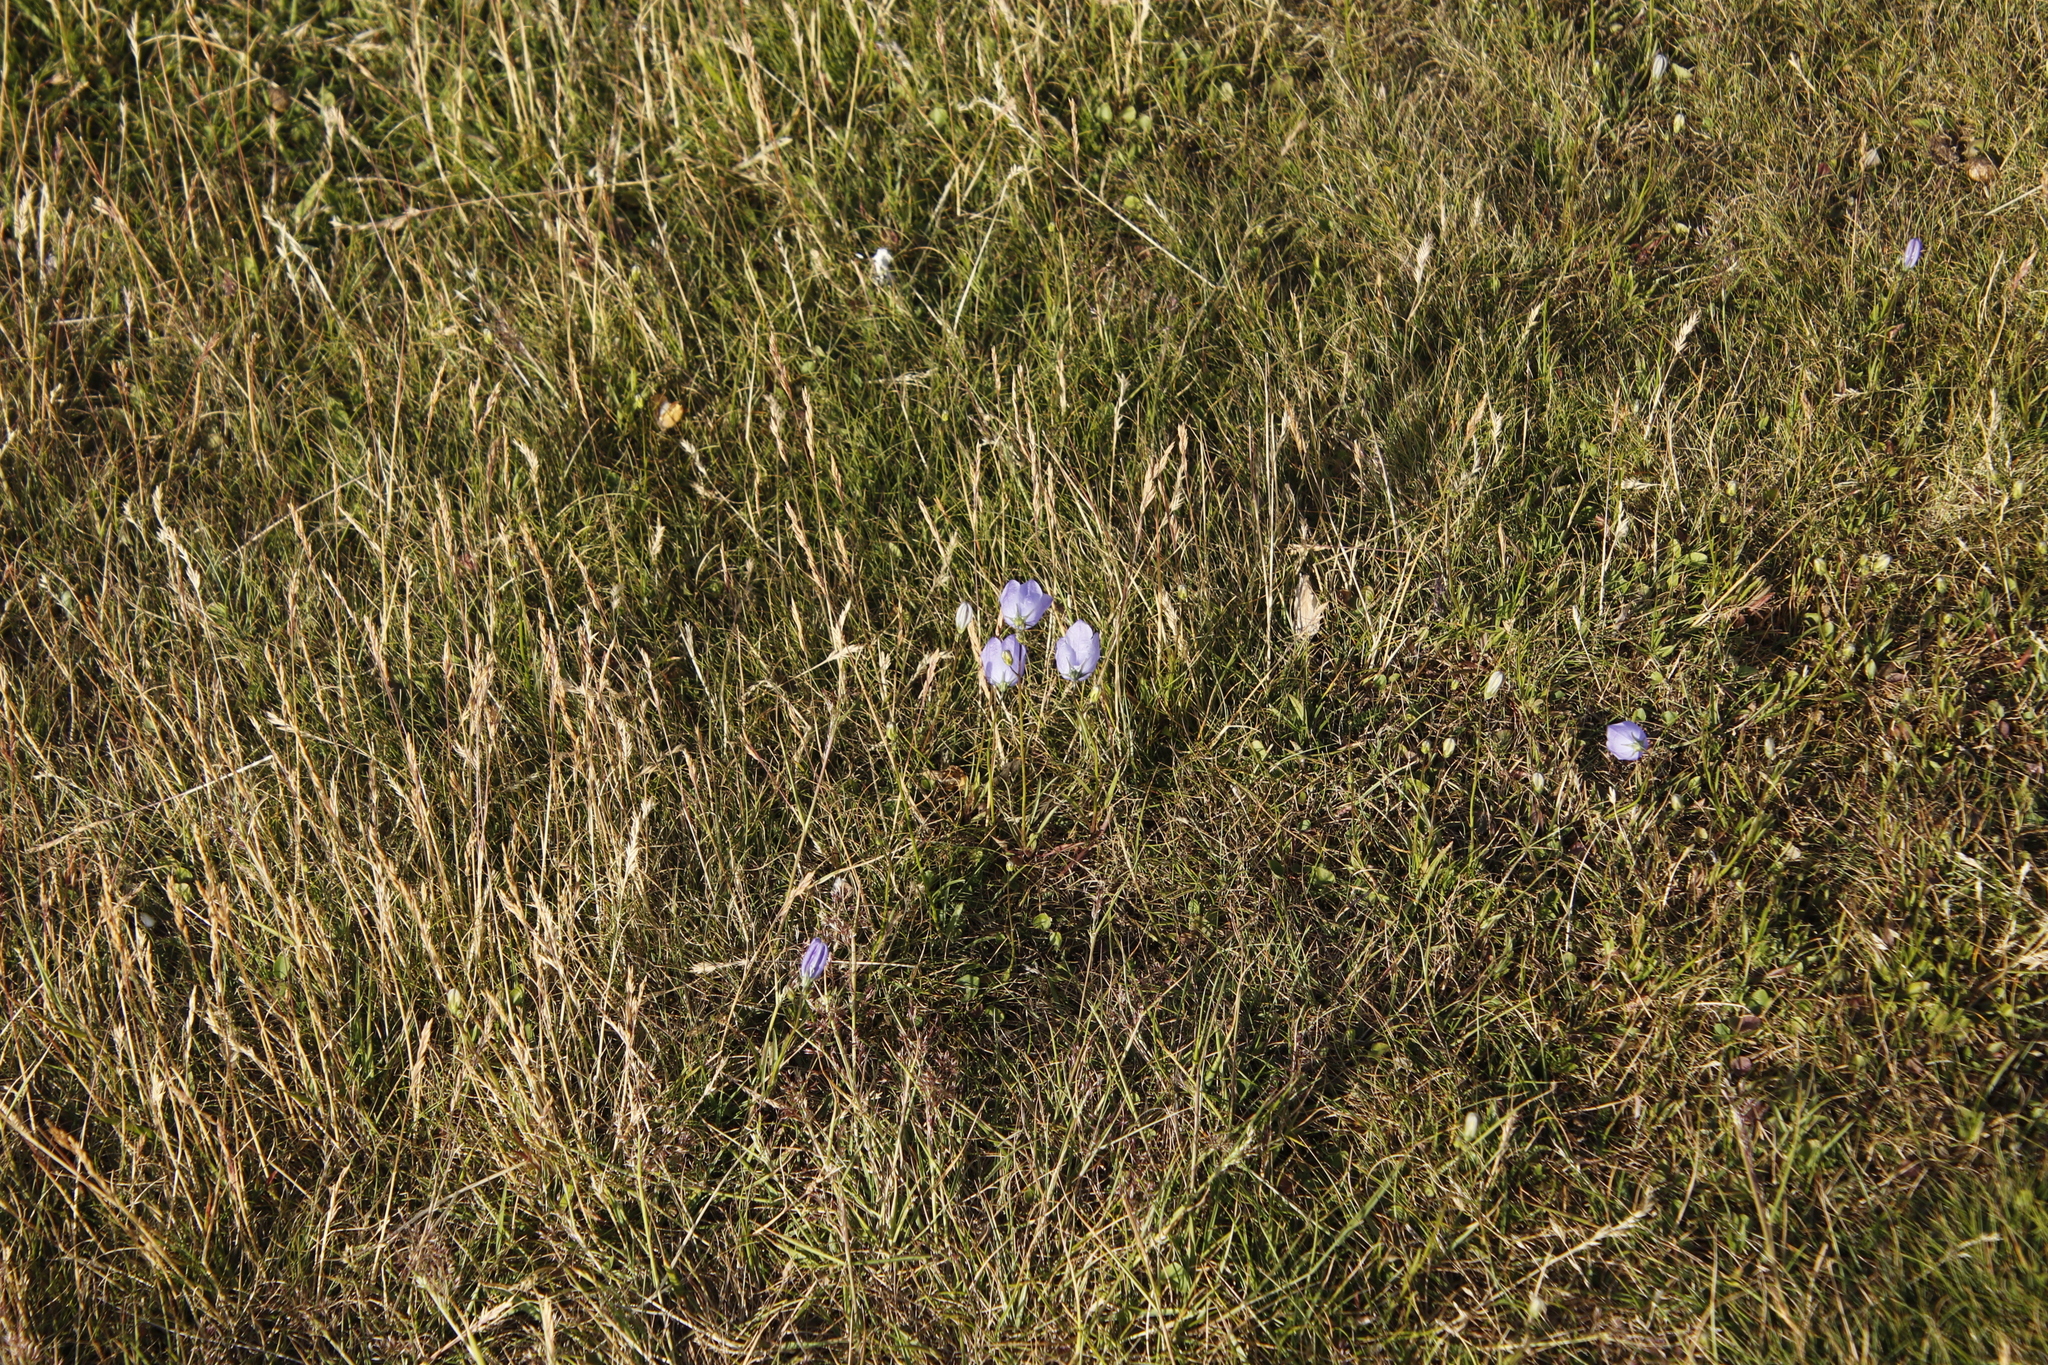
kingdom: Plantae
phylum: Tracheophyta
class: Magnoliopsida
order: Asterales
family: Campanulaceae
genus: Campanula
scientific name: Campanula rotundifolia
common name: Harebell
